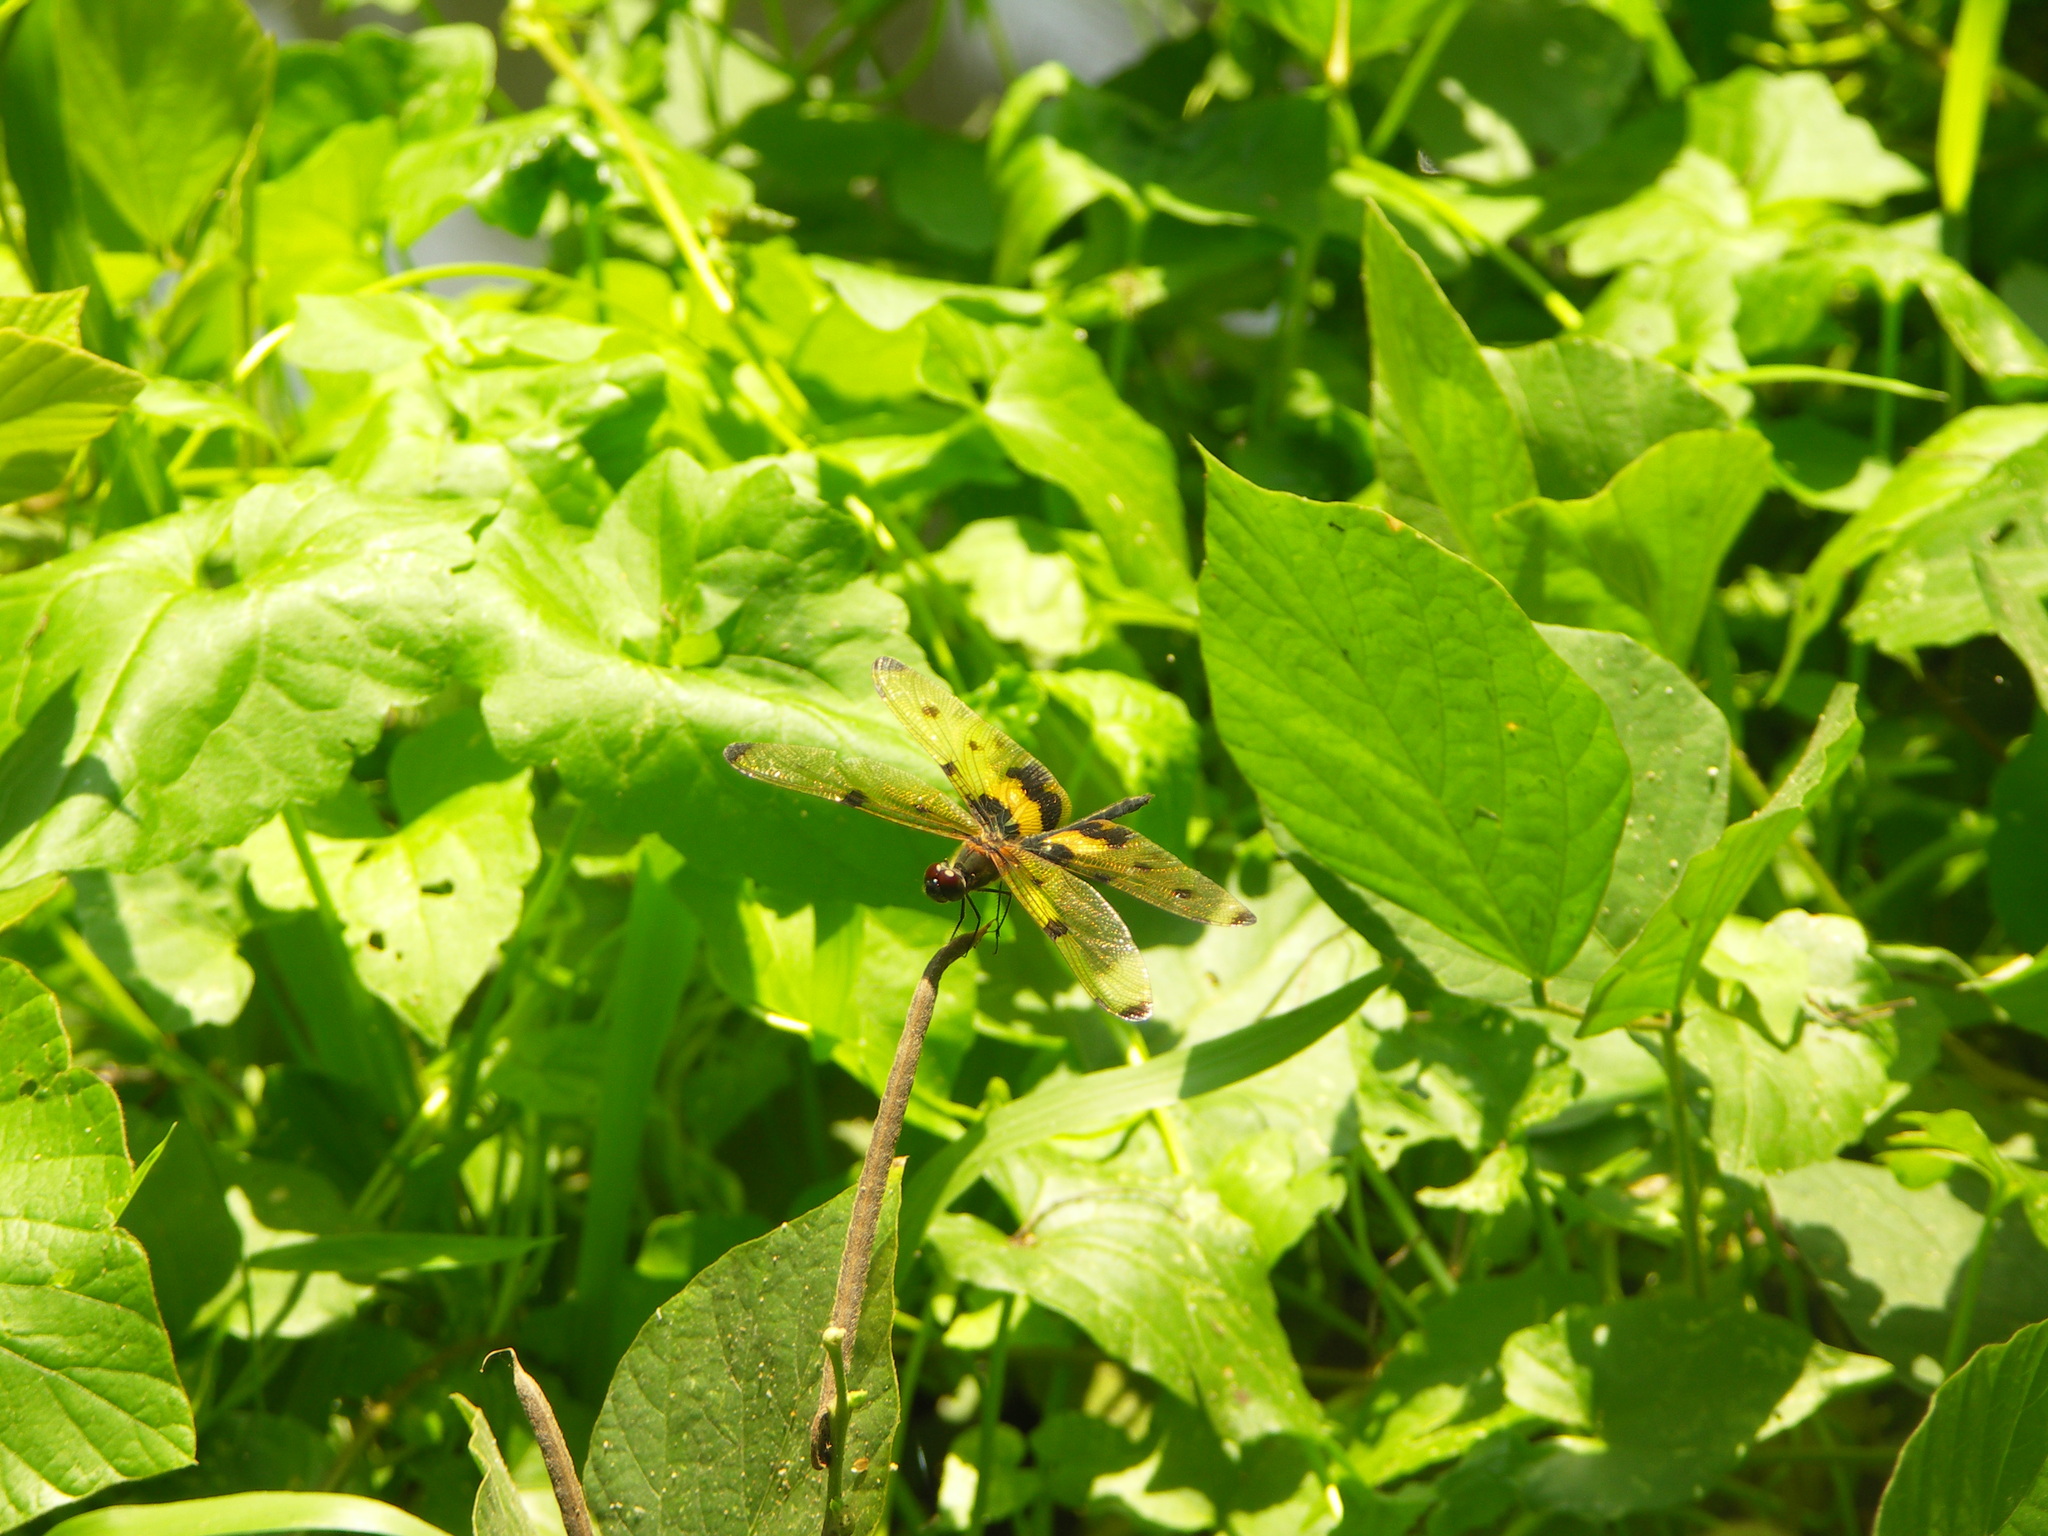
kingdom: Animalia
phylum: Arthropoda
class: Insecta
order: Odonata
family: Libellulidae
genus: Rhyothemis
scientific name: Rhyothemis variegata
